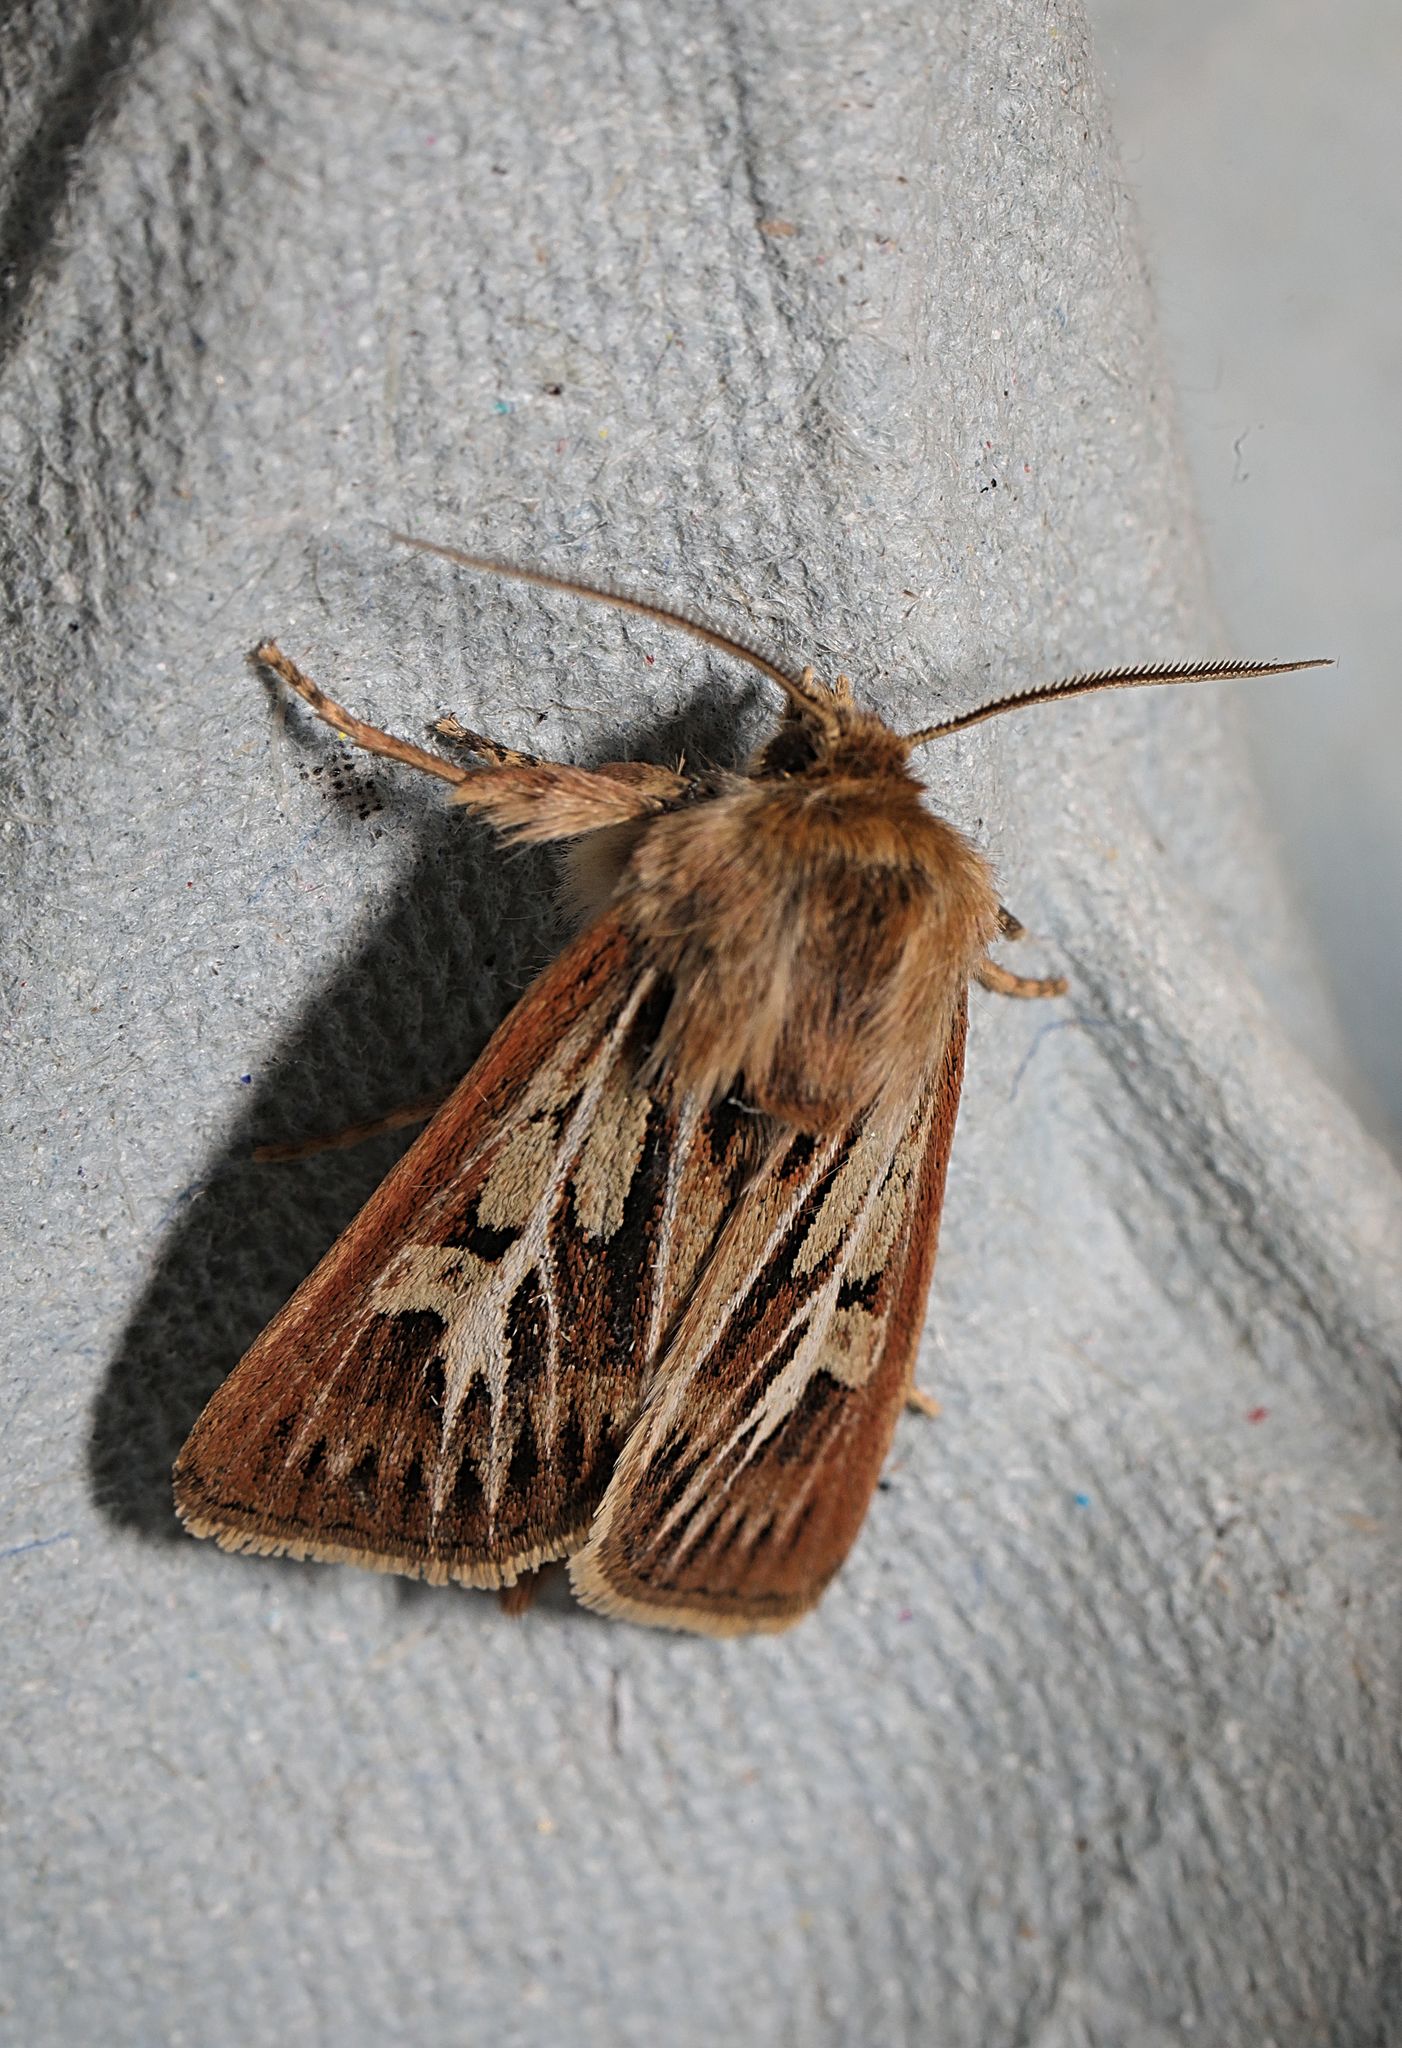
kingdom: Animalia
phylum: Arthropoda
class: Insecta
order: Lepidoptera
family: Noctuidae
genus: Cerapteryx
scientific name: Cerapteryx graminis
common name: Antler moth
